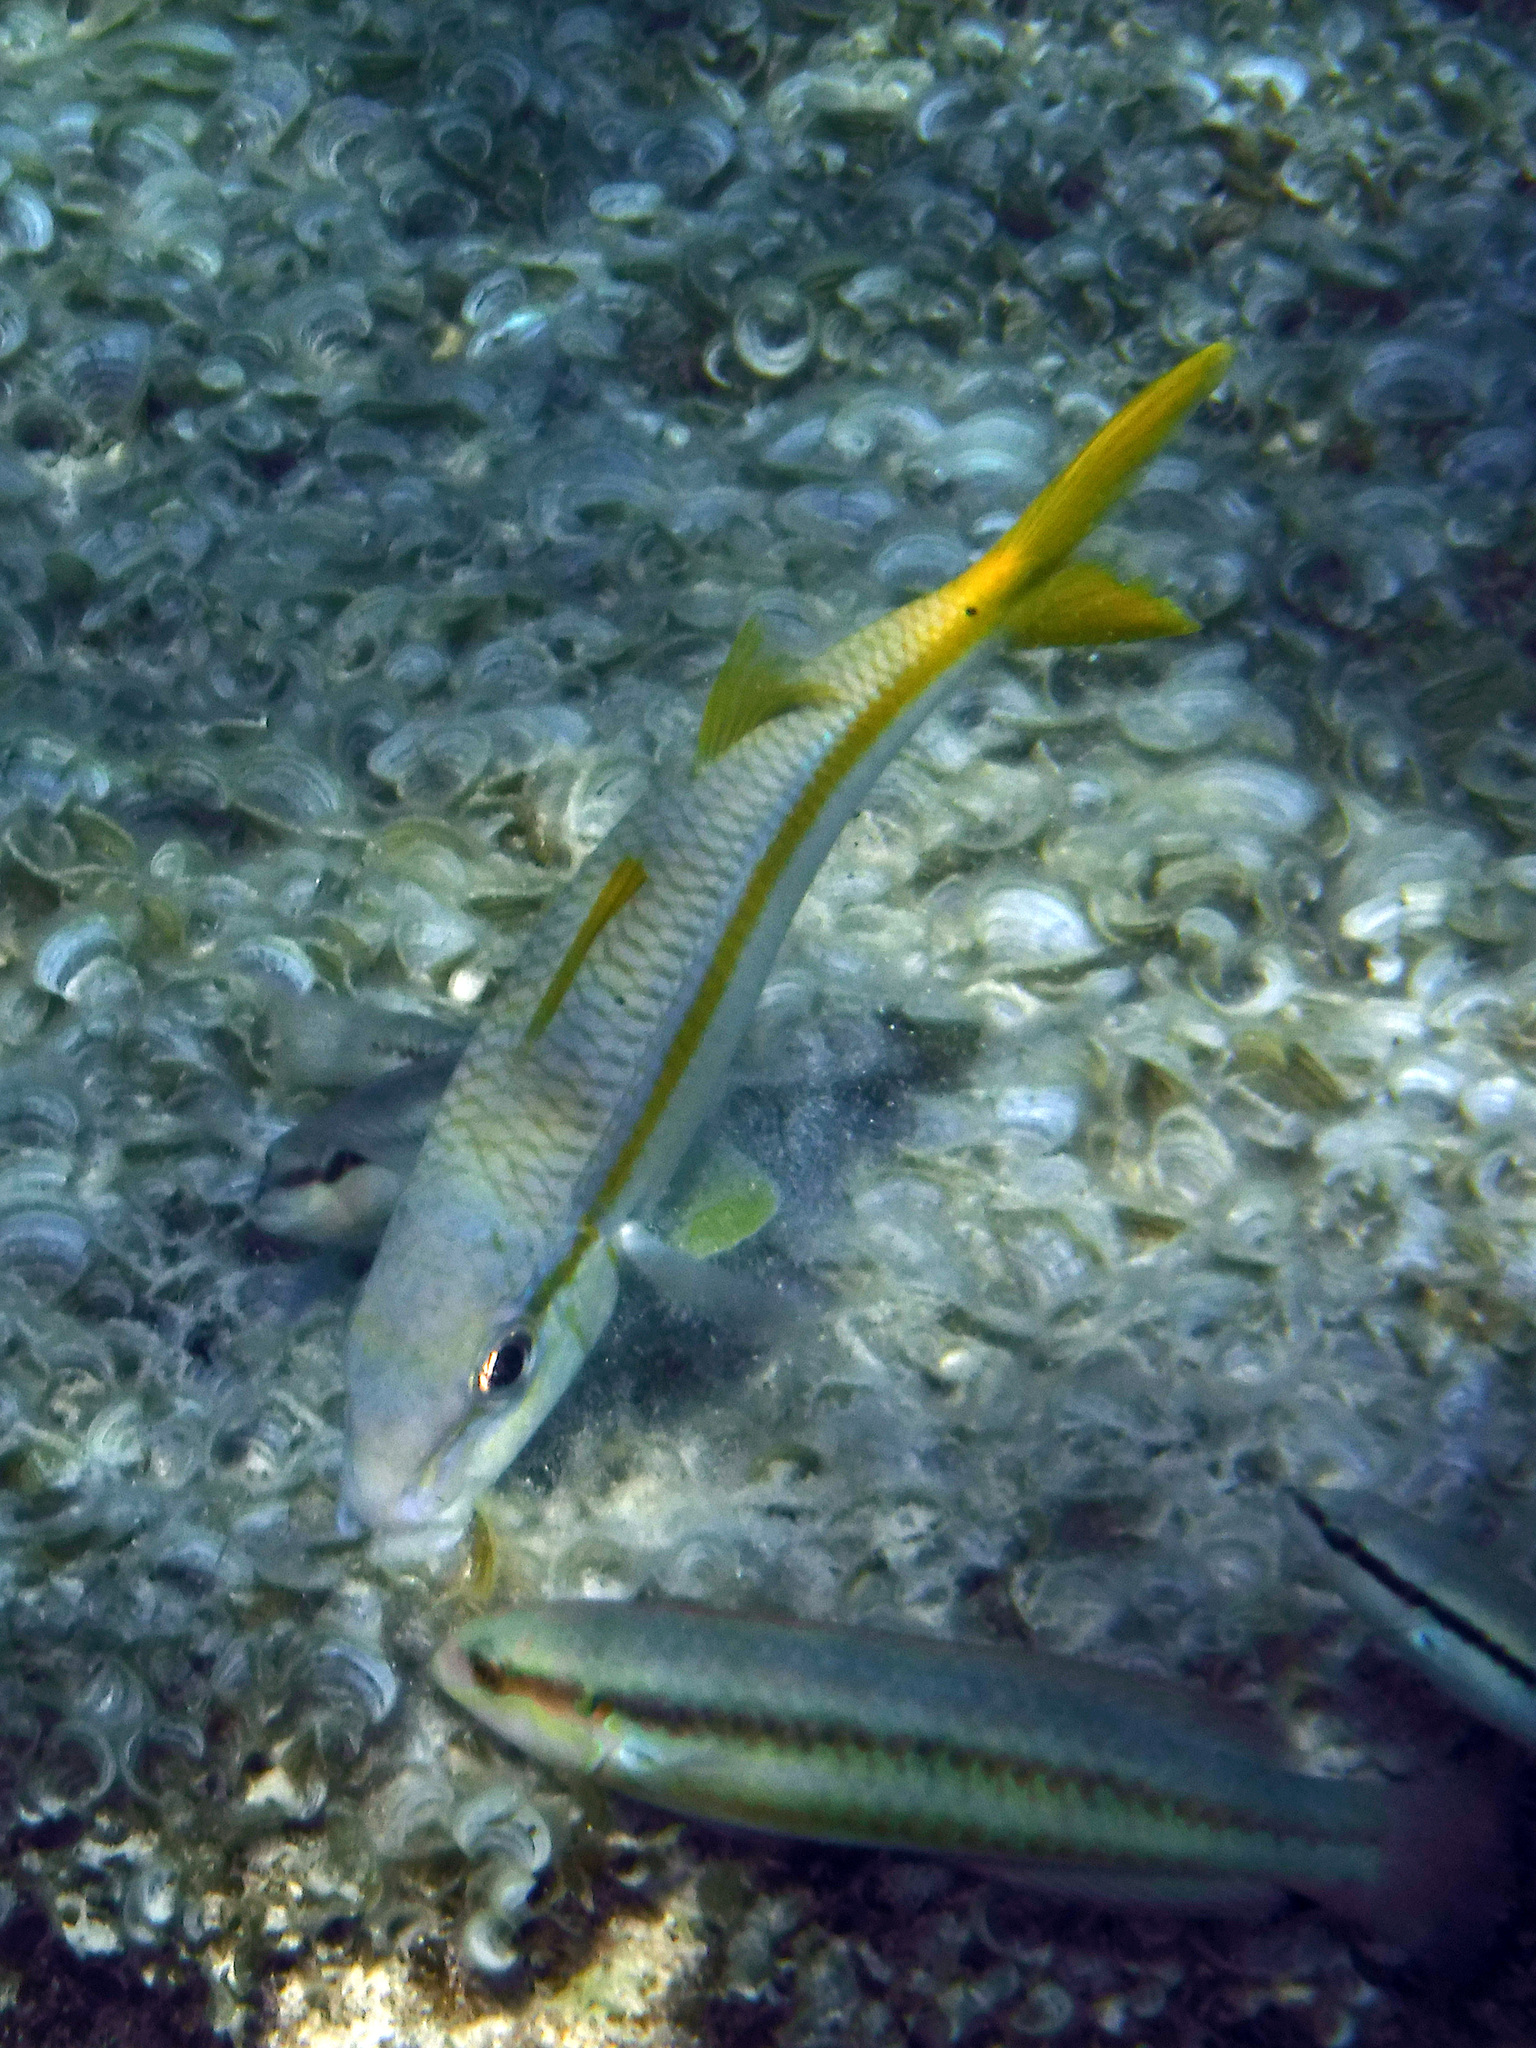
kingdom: Animalia
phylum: Chordata
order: Perciformes
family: Mullidae
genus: Mulloidichthys
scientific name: Mulloidichthys martinicus
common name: Yellow goatfish
